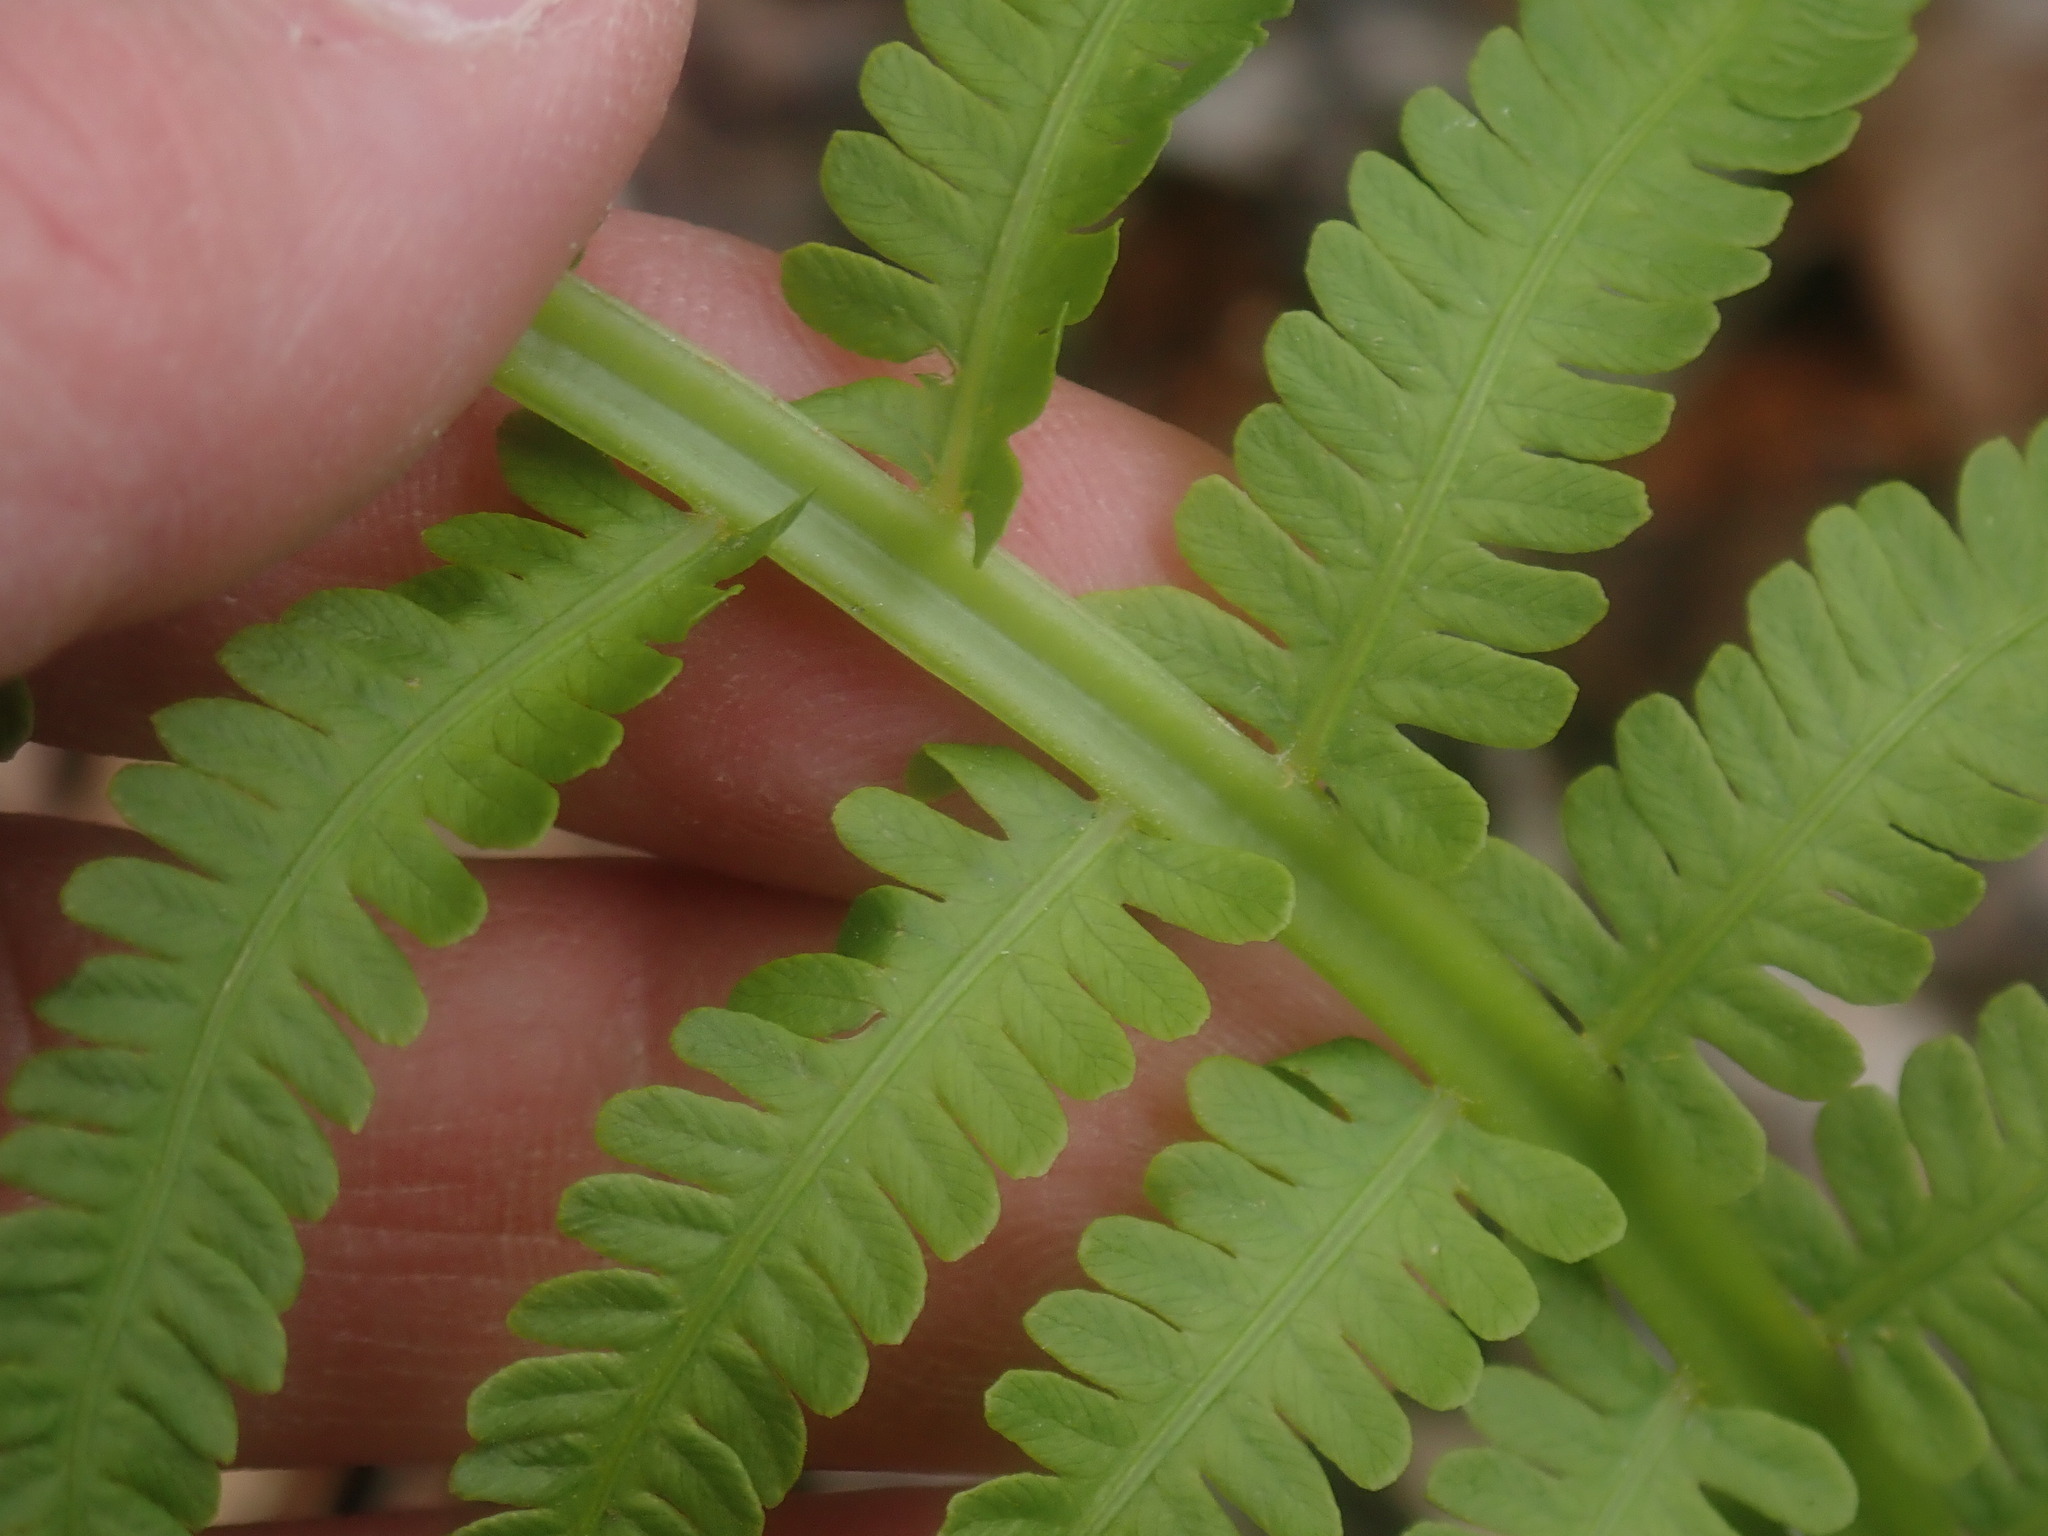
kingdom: Plantae
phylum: Tracheophyta
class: Polypodiopsida
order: Polypodiales
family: Onocleaceae
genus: Matteuccia
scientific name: Matteuccia struthiopteris
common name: Ostrich fern
